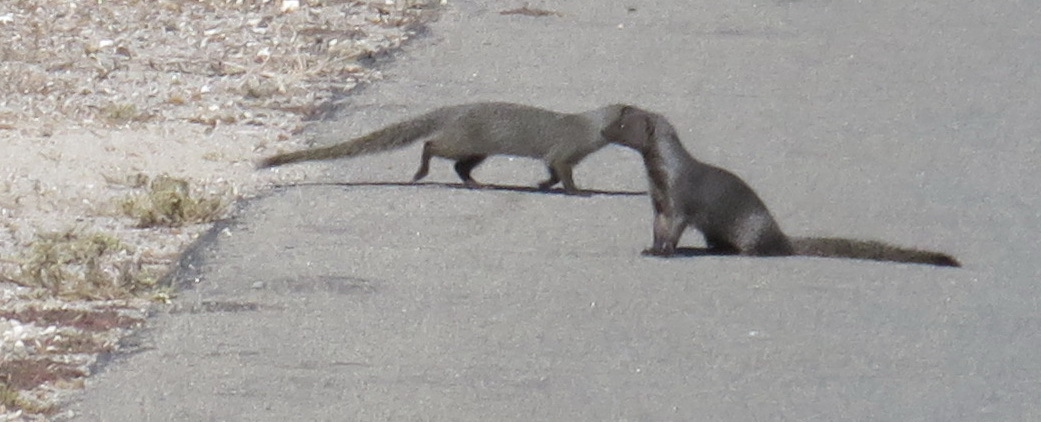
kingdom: Animalia
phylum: Chordata
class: Mammalia
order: Carnivora
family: Herpestidae
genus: Galerella
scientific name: Galerella pulverulenta
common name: Cape gray mongoose
